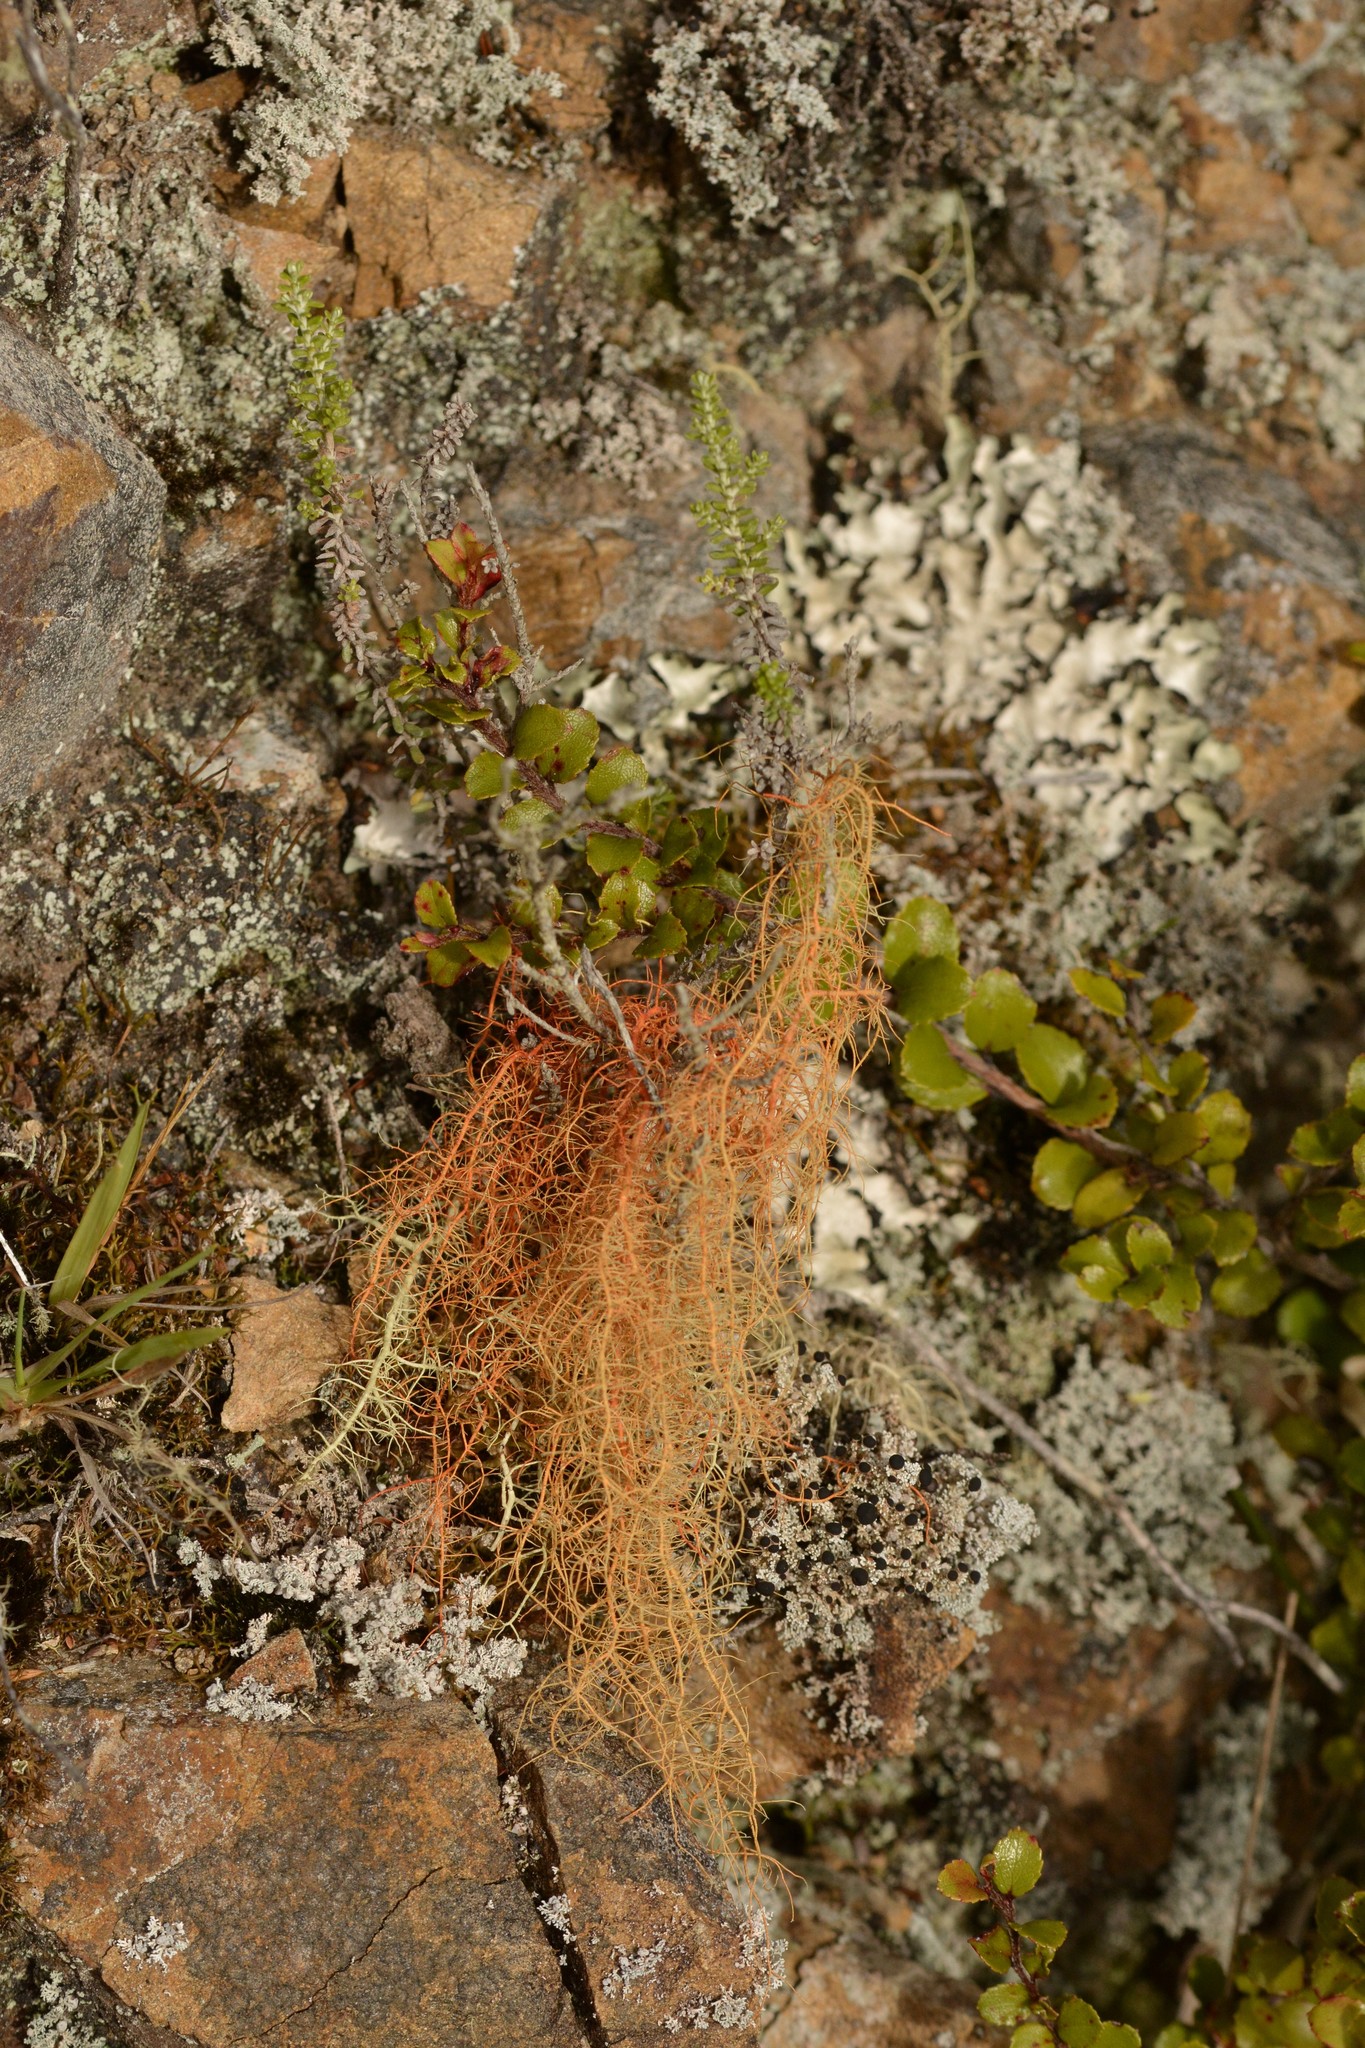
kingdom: Fungi
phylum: Ascomycota
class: Lecanoromycetes
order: Lecanorales
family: Parmeliaceae
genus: Usnea
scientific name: Usnea rubicunda
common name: Red beard lichen
